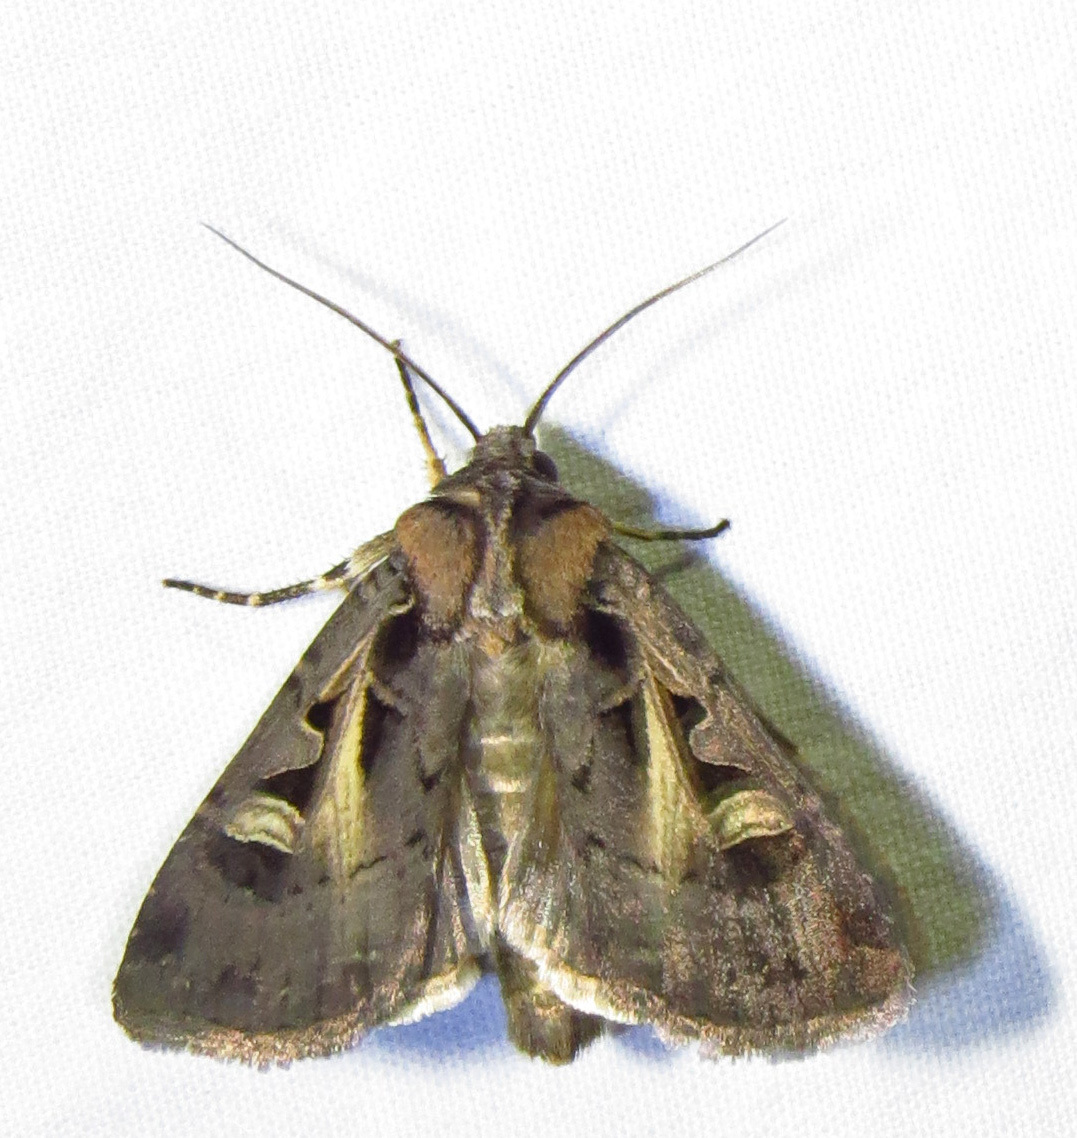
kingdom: Animalia
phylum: Arthropoda
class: Insecta
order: Lepidoptera
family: Noctuidae
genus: Feltia
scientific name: Feltia herilis
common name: Master's dart
